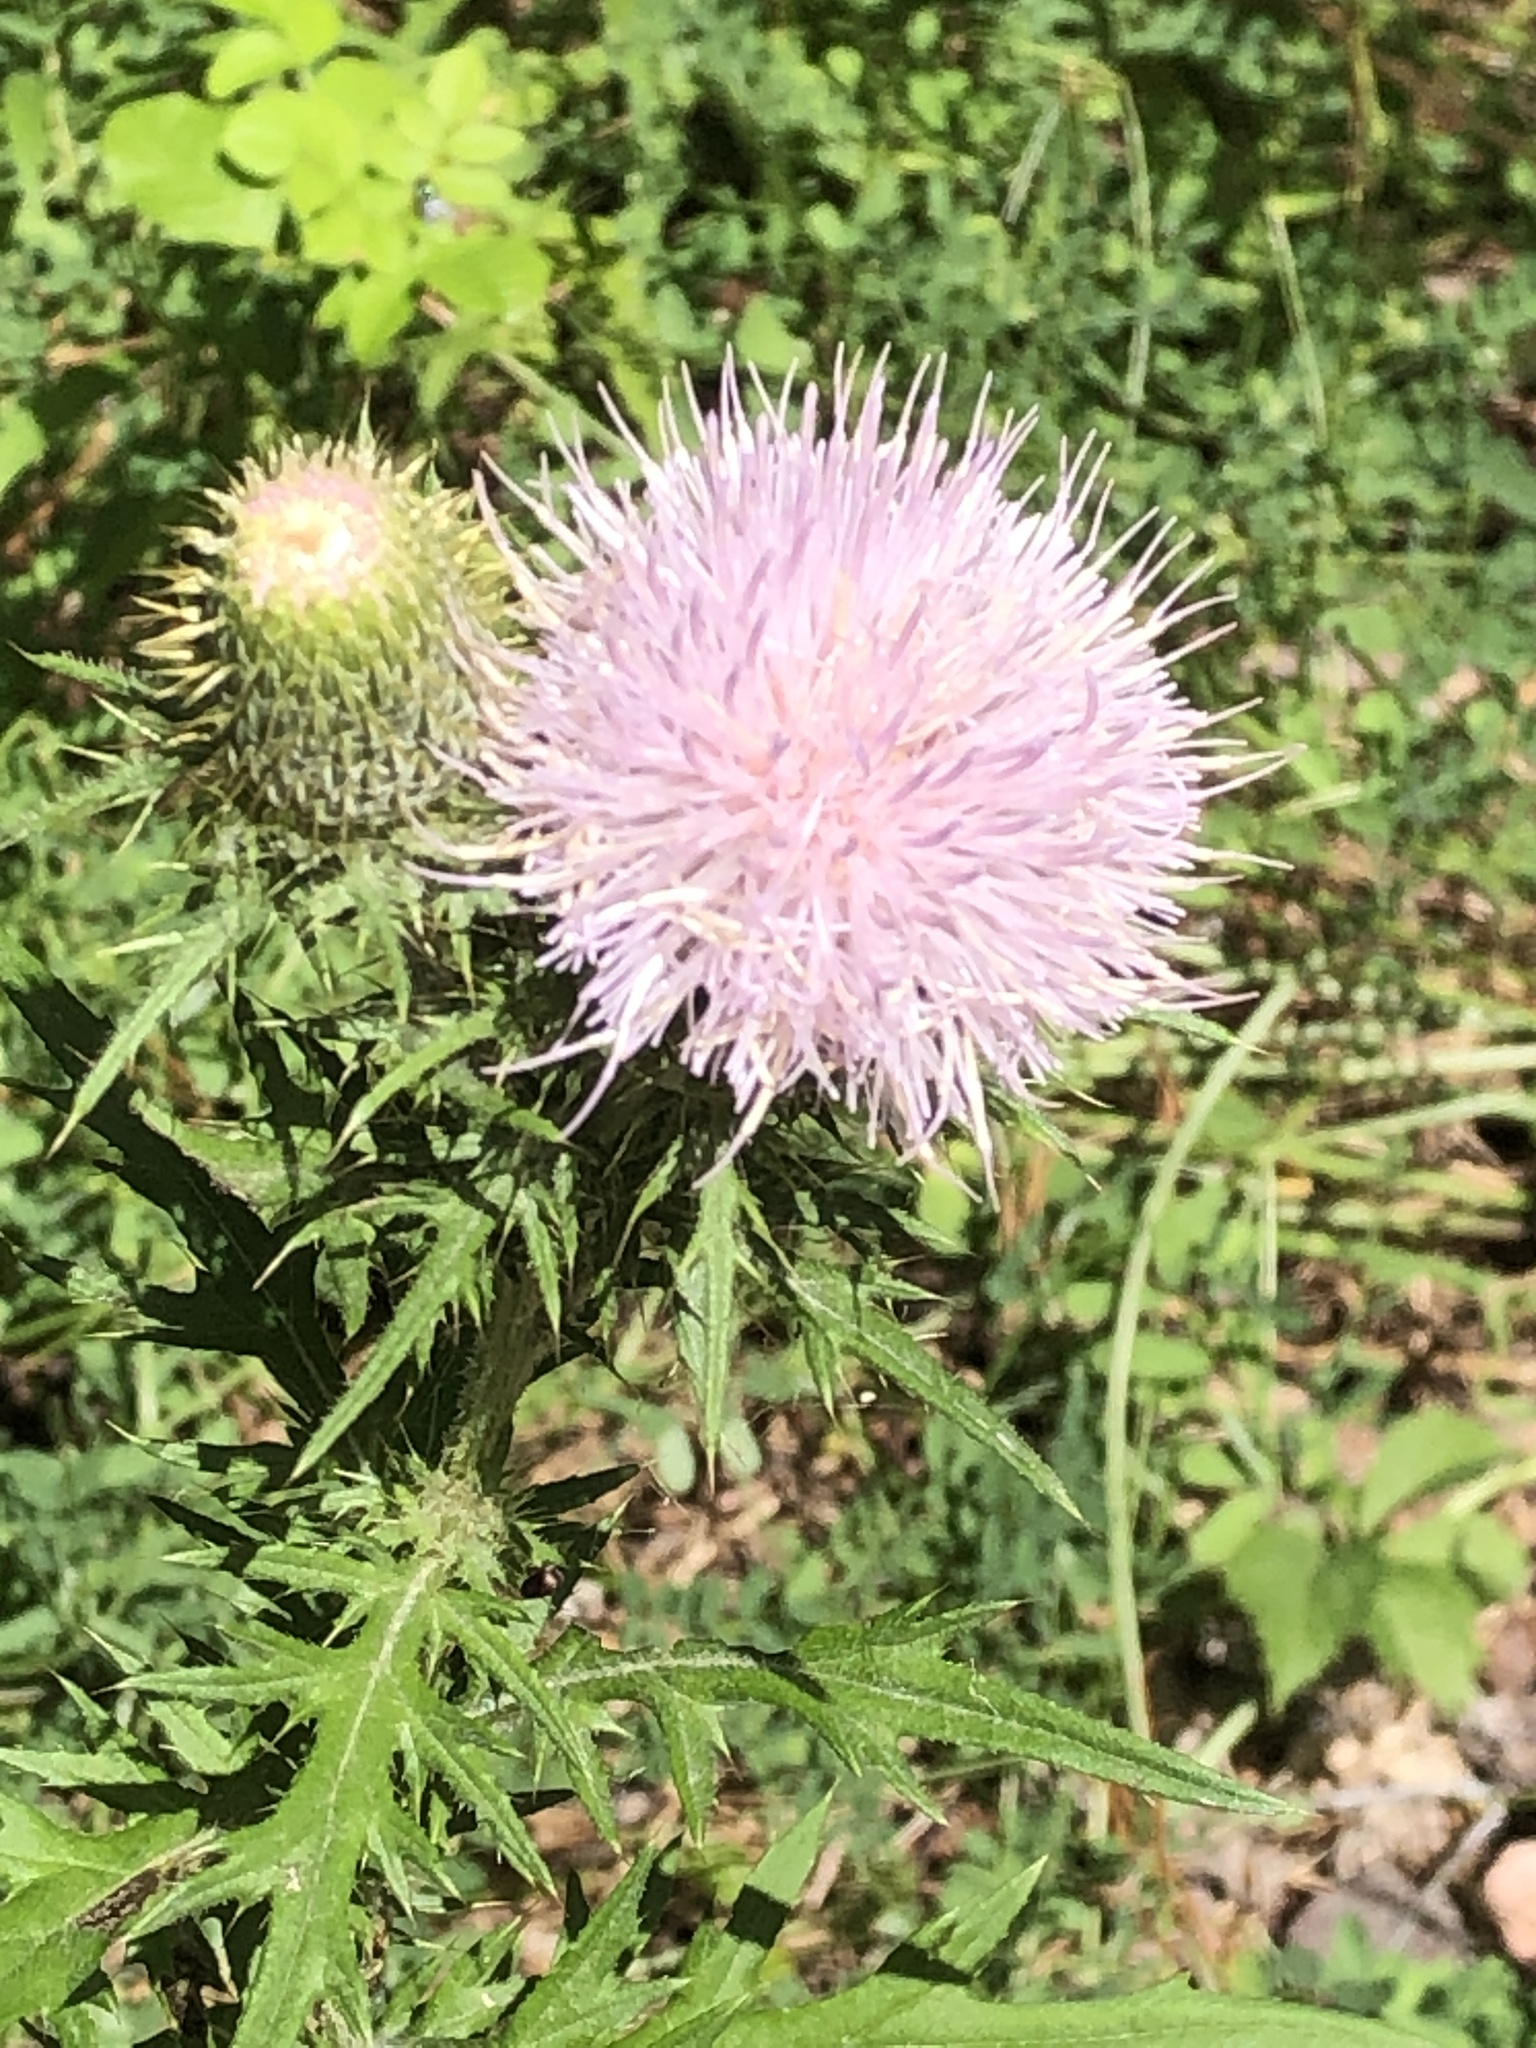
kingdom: Plantae
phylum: Tracheophyta
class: Magnoliopsida
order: Asterales
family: Asteraceae
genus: Cirsium
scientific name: Cirsium discolor
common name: Field thistle
